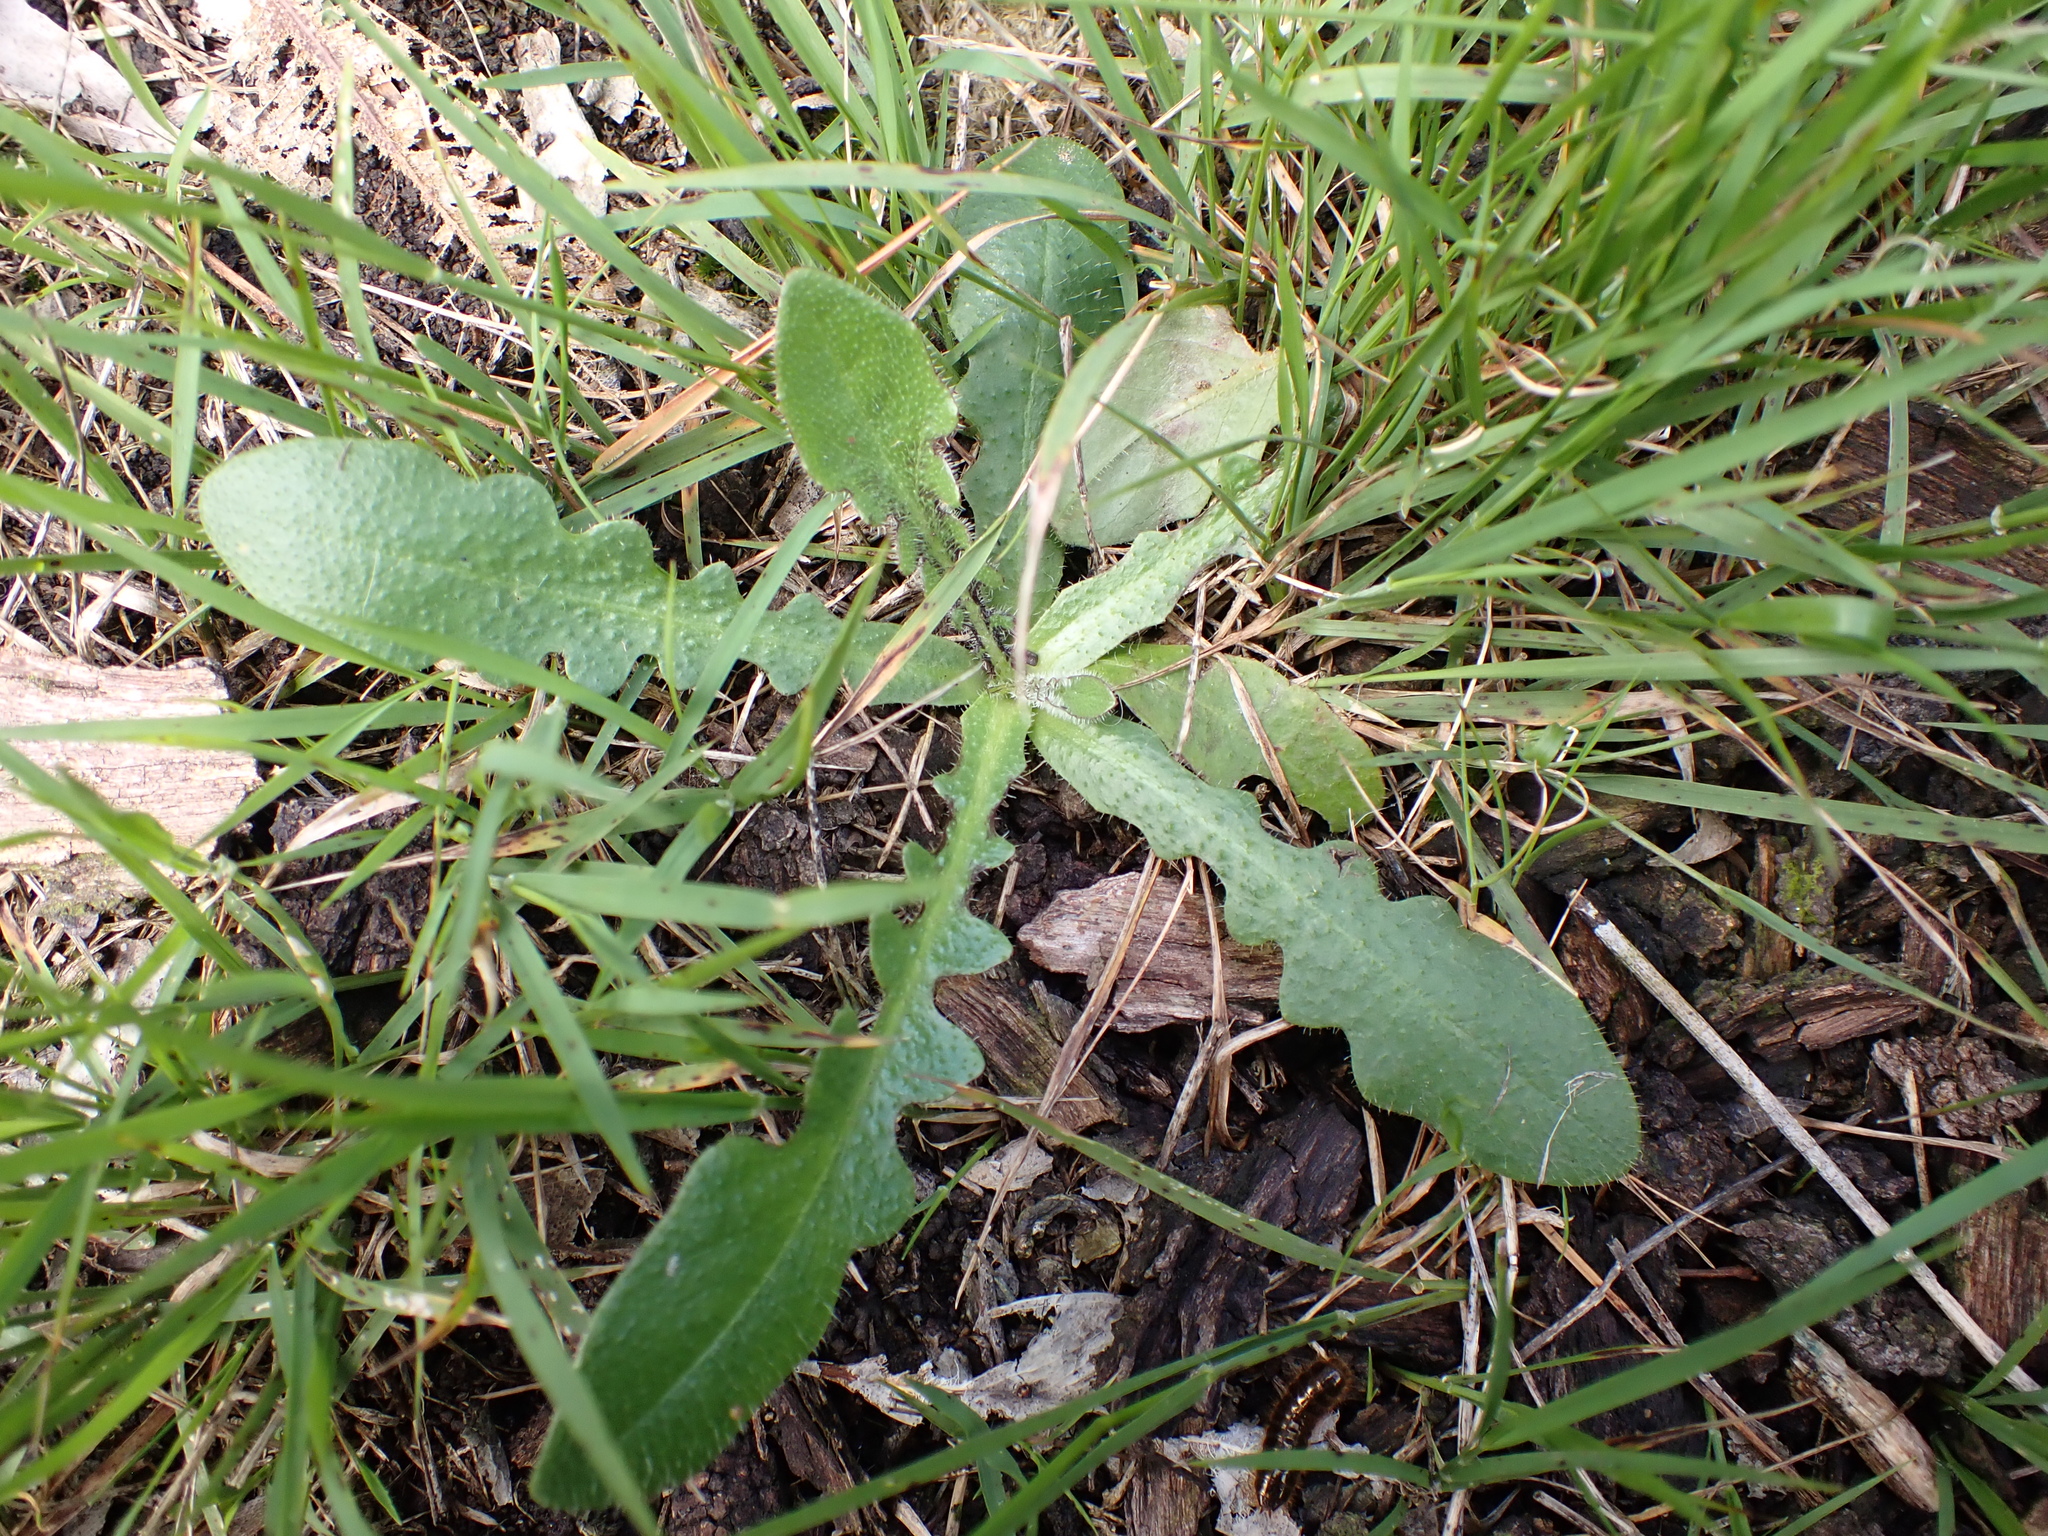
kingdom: Plantae
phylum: Tracheophyta
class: Magnoliopsida
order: Asterales
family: Asteraceae
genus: Hypochaeris
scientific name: Hypochaeris radicata
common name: Flatweed
